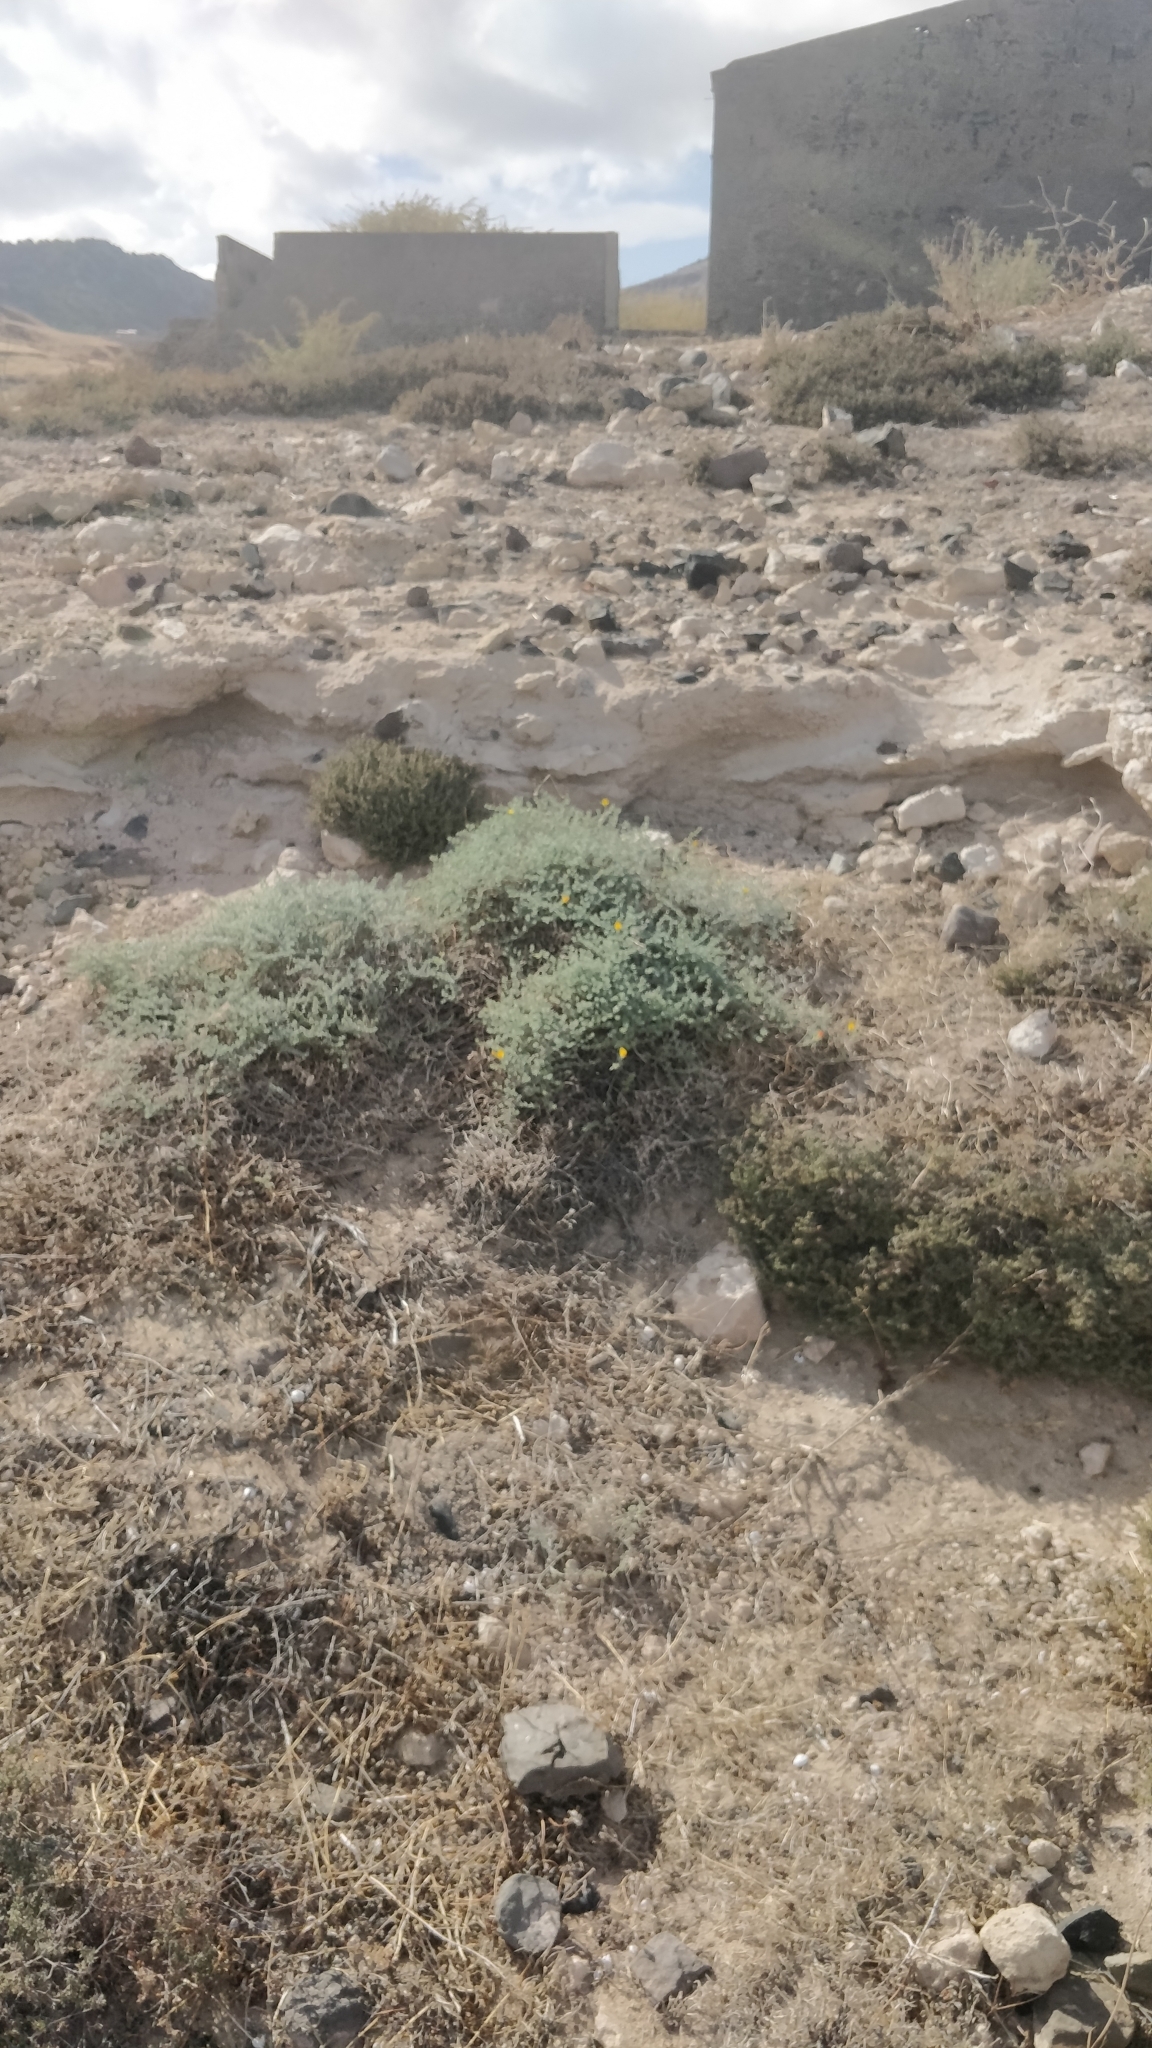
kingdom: Plantae
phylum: Tracheophyta
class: Magnoliopsida
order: Fabales
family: Fabaceae
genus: Lotus
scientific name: Lotus glaucus
